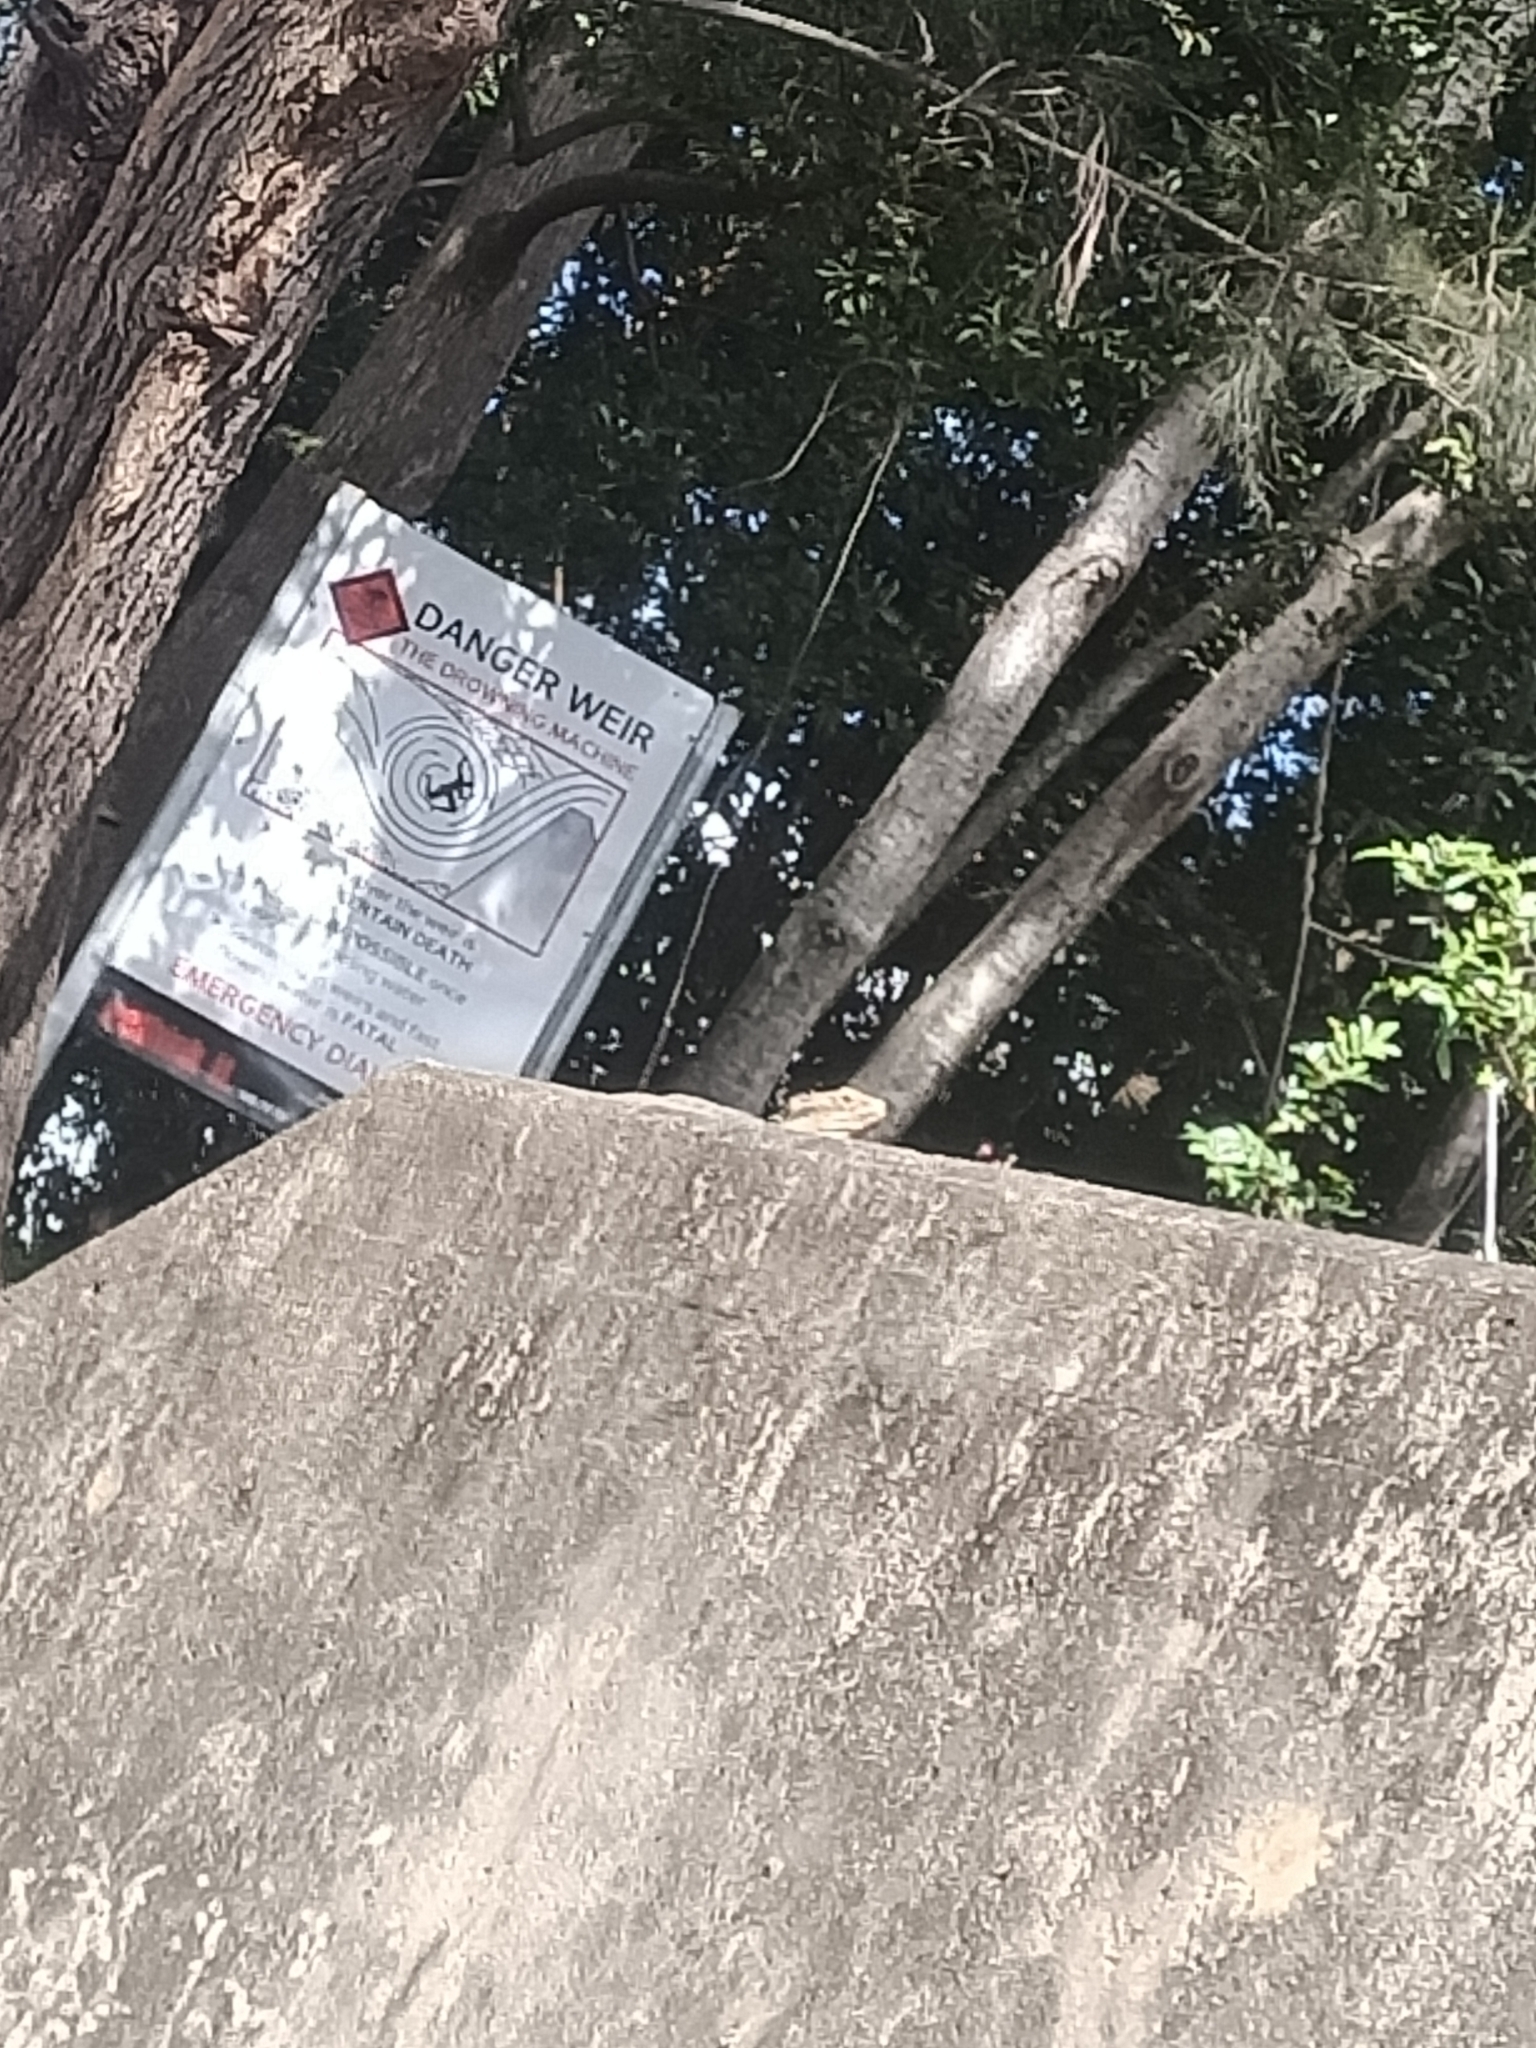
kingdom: Animalia
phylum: Chordata
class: Squamata
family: Agamidae
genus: Intellagama
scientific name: Intellagama lesueurii
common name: Eastern water dragon
